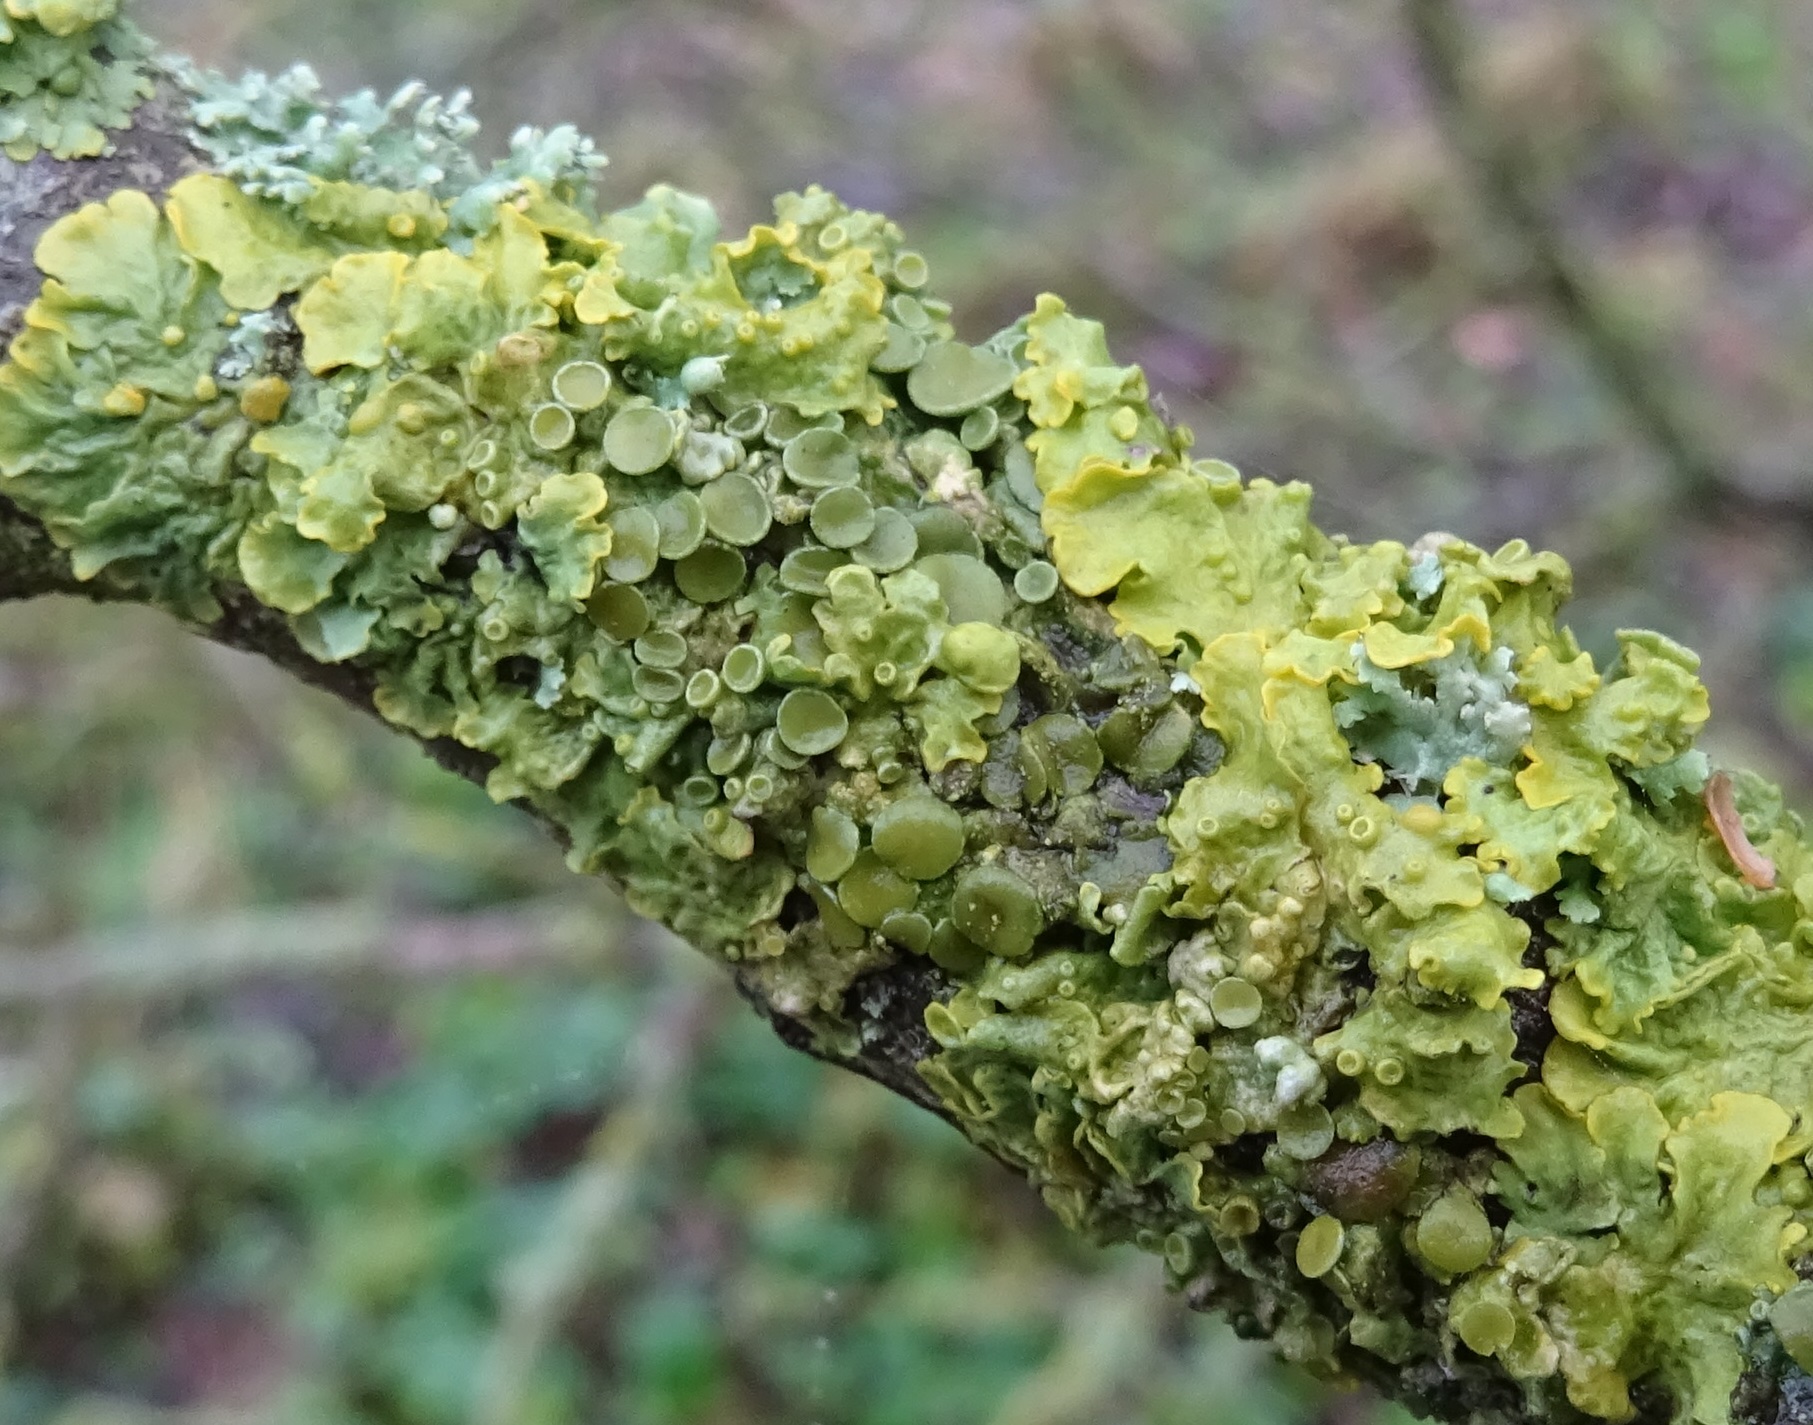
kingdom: Fungi
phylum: Ascomycota
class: Lecanoromycetes
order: Teloschistales
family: Teloschistaceae
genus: Xanthoria
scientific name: Xanthoria parietina
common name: Common orange lichen
